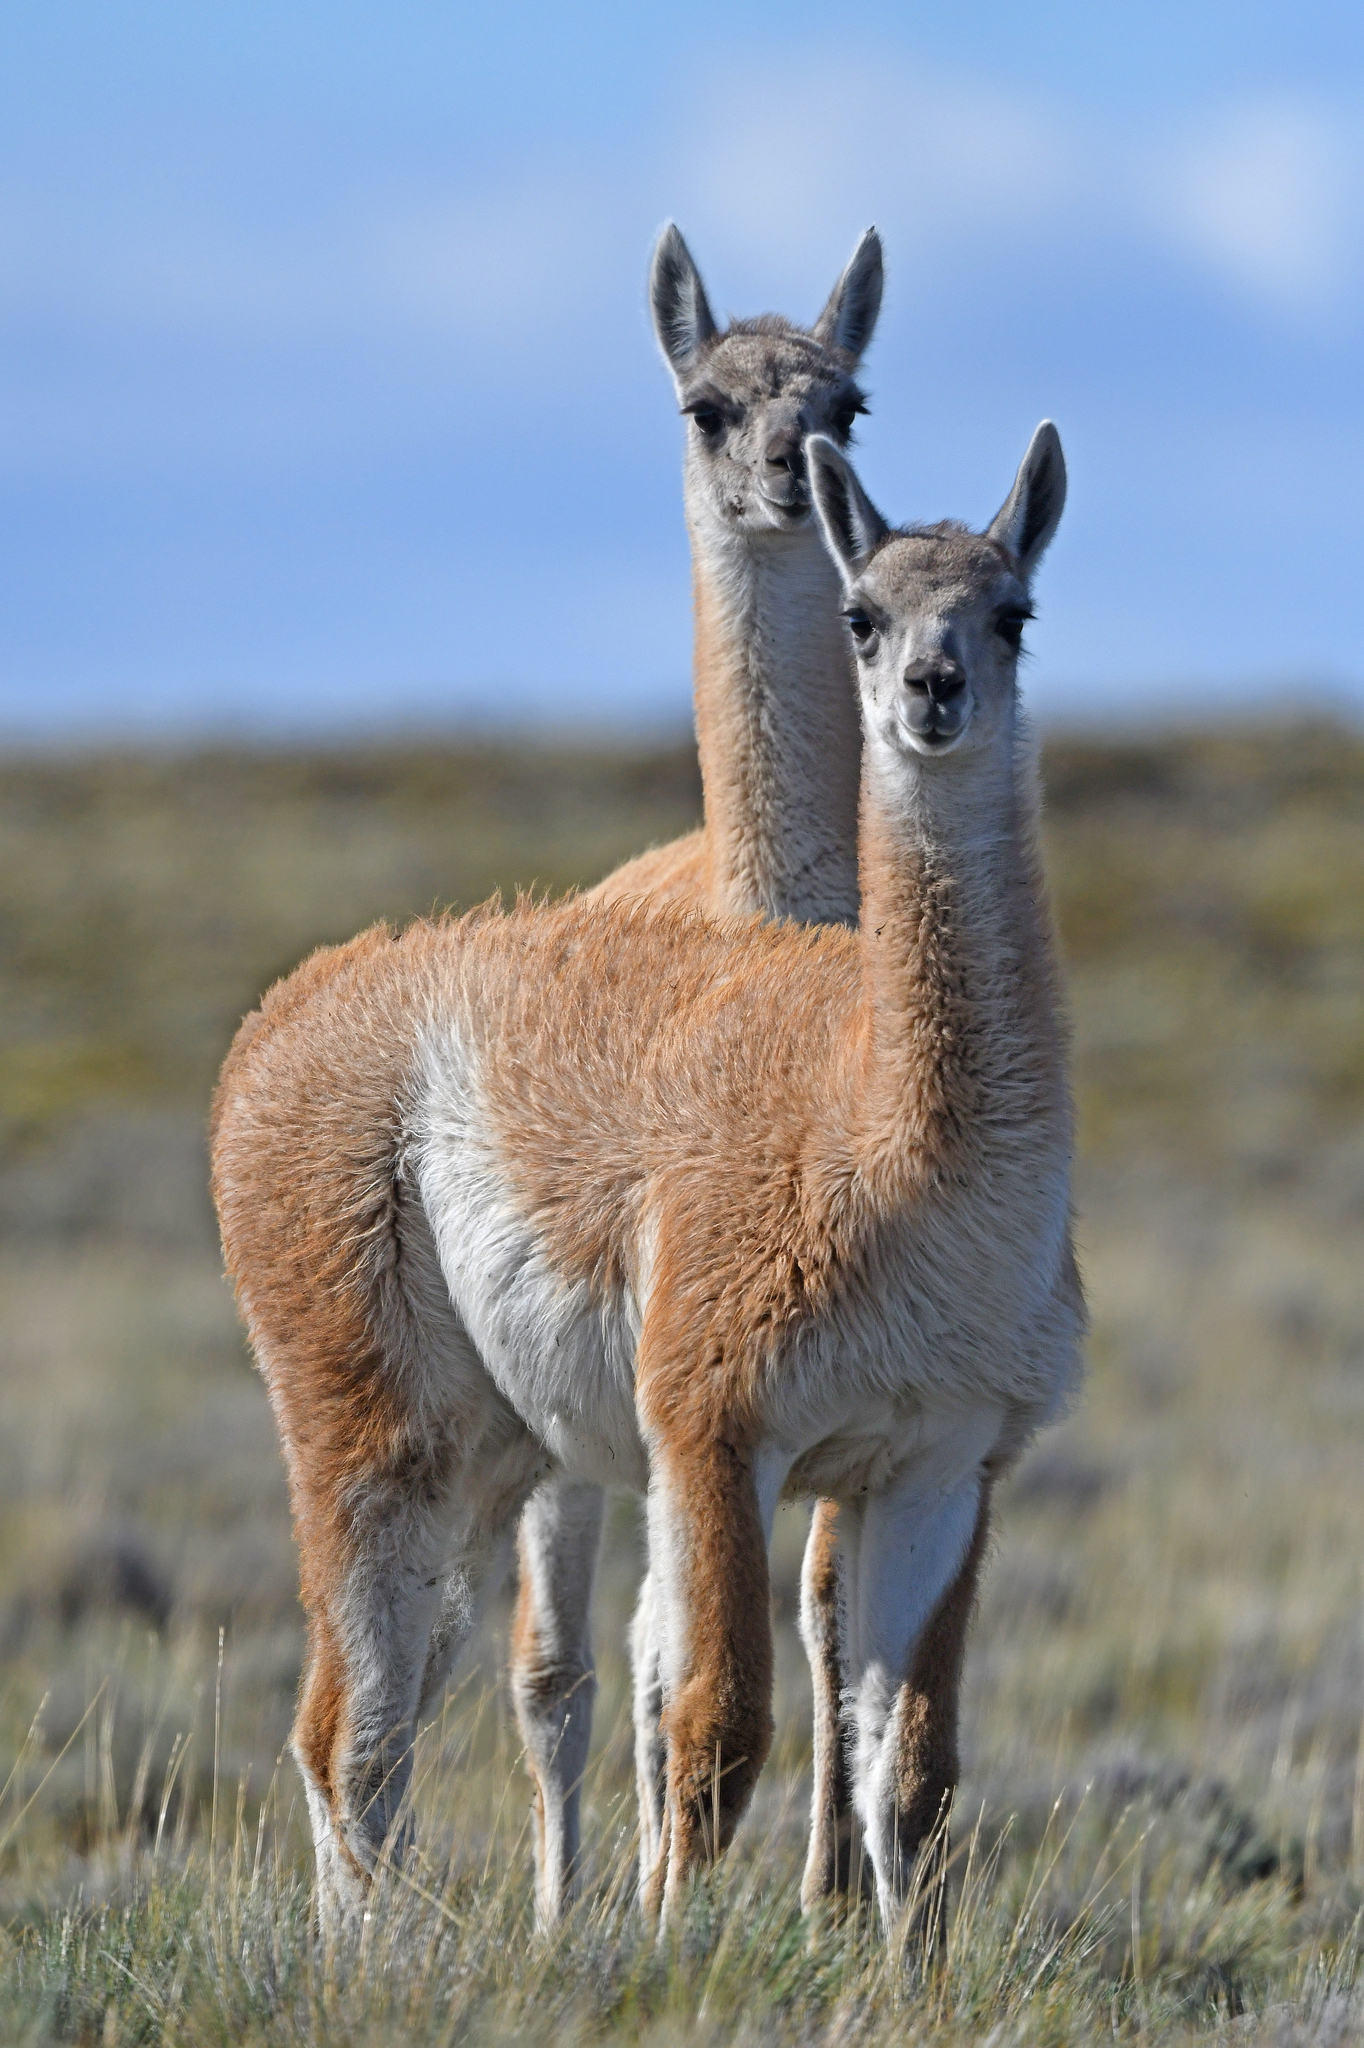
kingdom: Animalia
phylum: Chordata
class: Mammalia
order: Artiodactyla
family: Camelidae
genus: Lama
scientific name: Lama glama
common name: Llama
